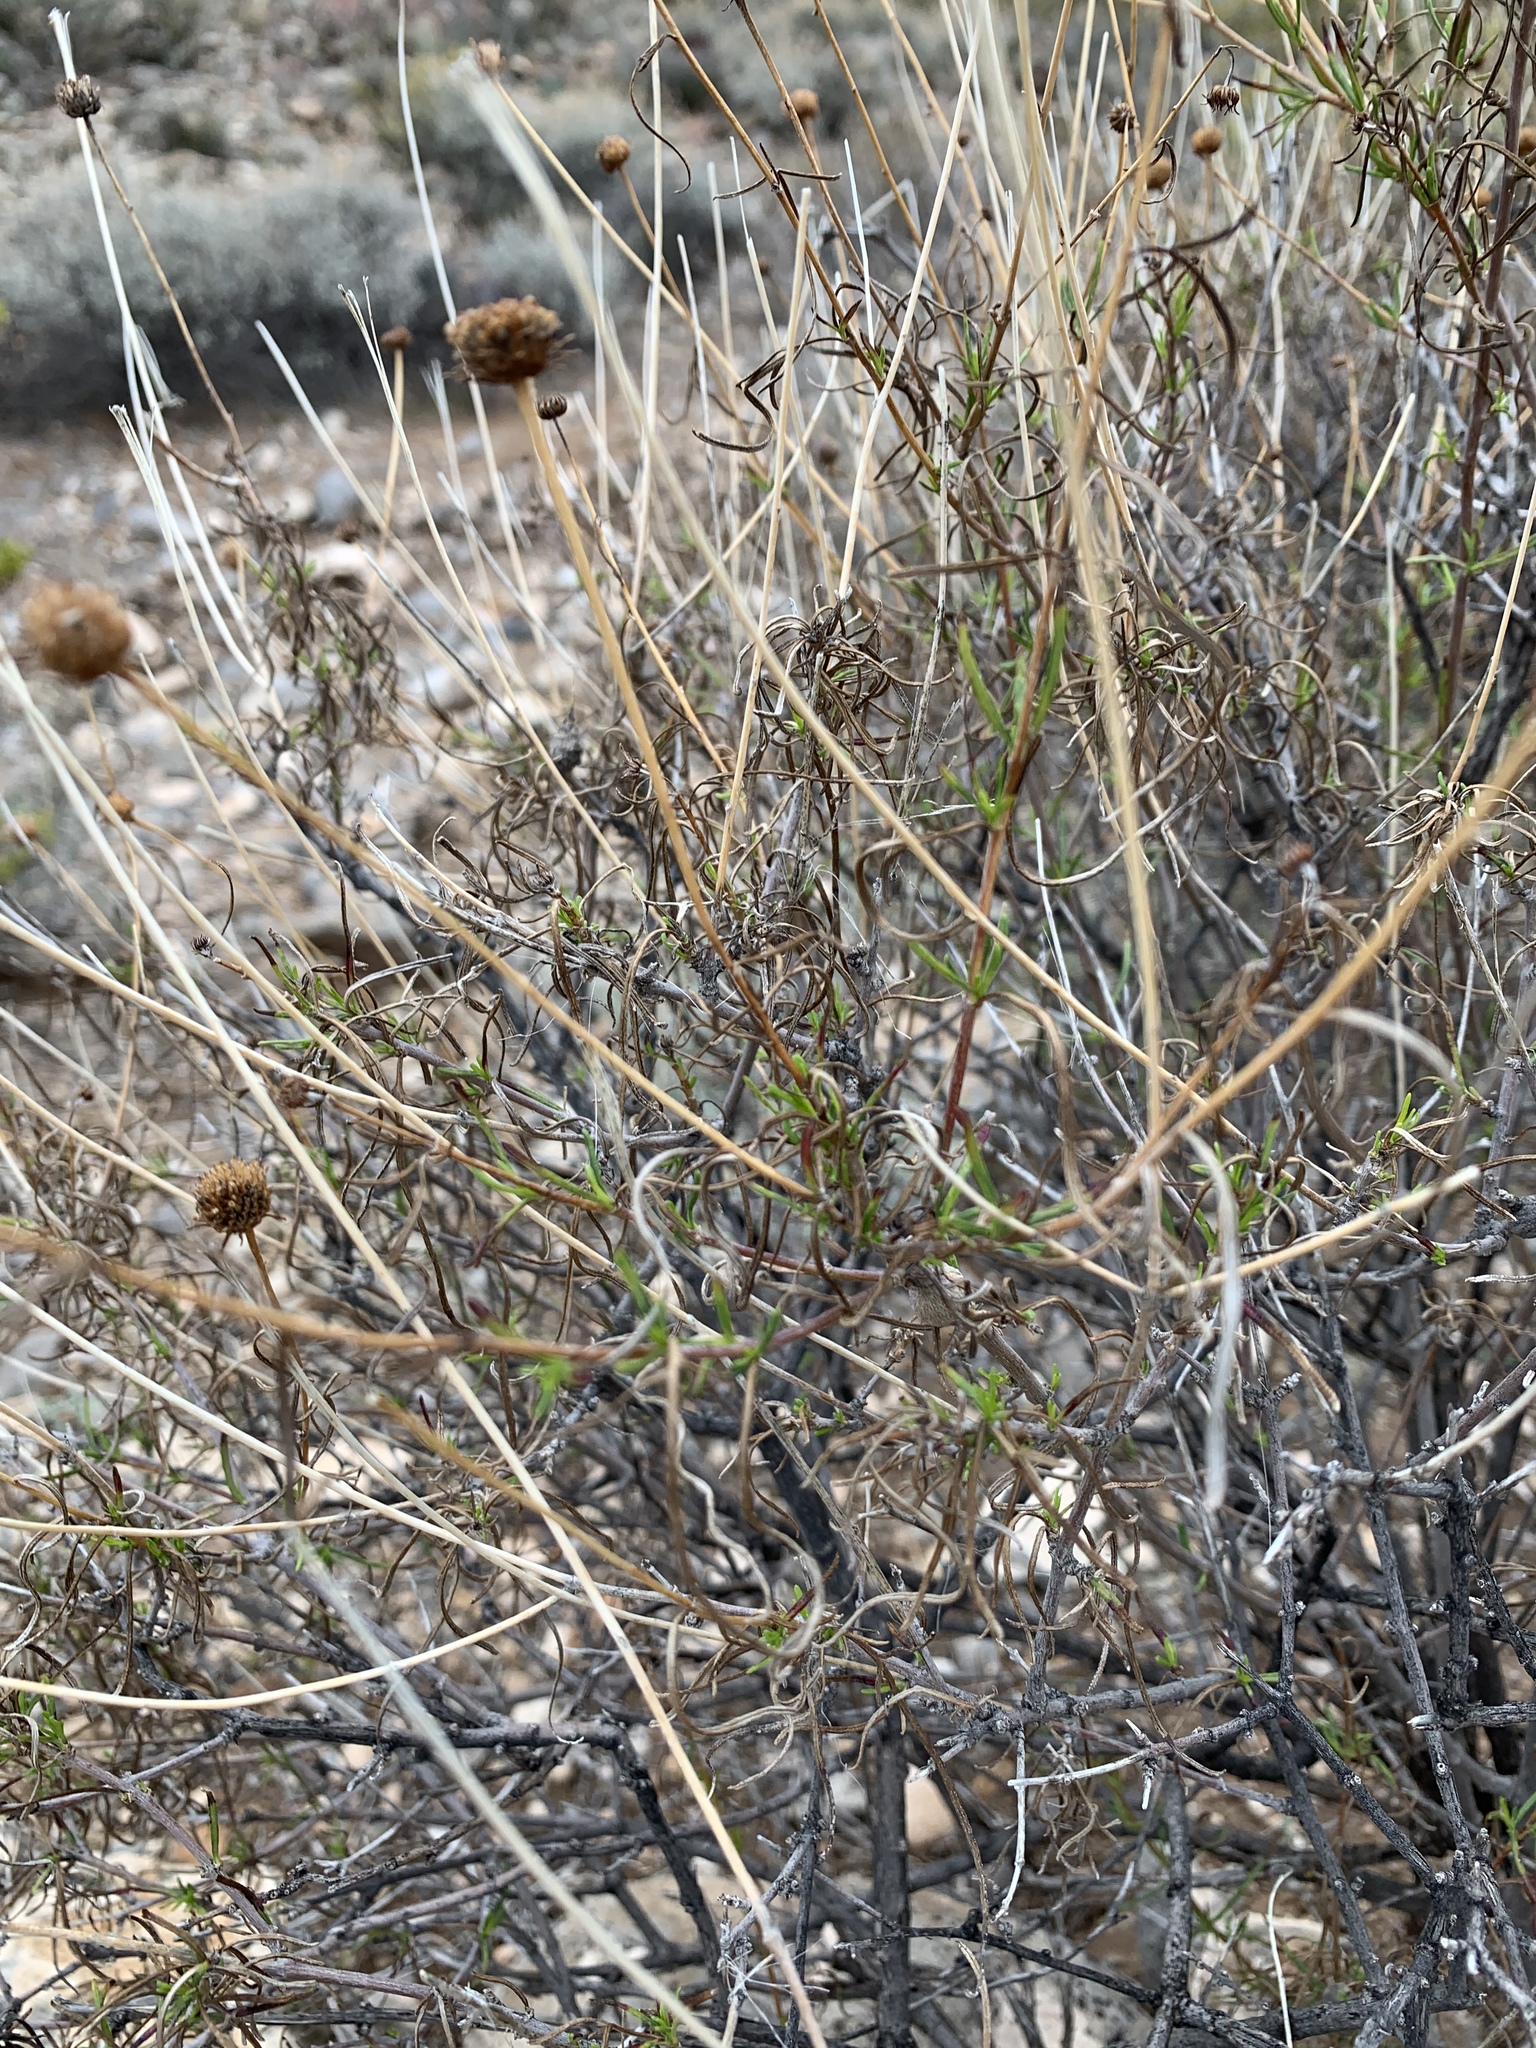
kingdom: Plantae
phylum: Tracheophyta
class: Magnoliopsida
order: Asterales
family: Asteraceae
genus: Sidneya
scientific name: Sidneya tenuifolia
